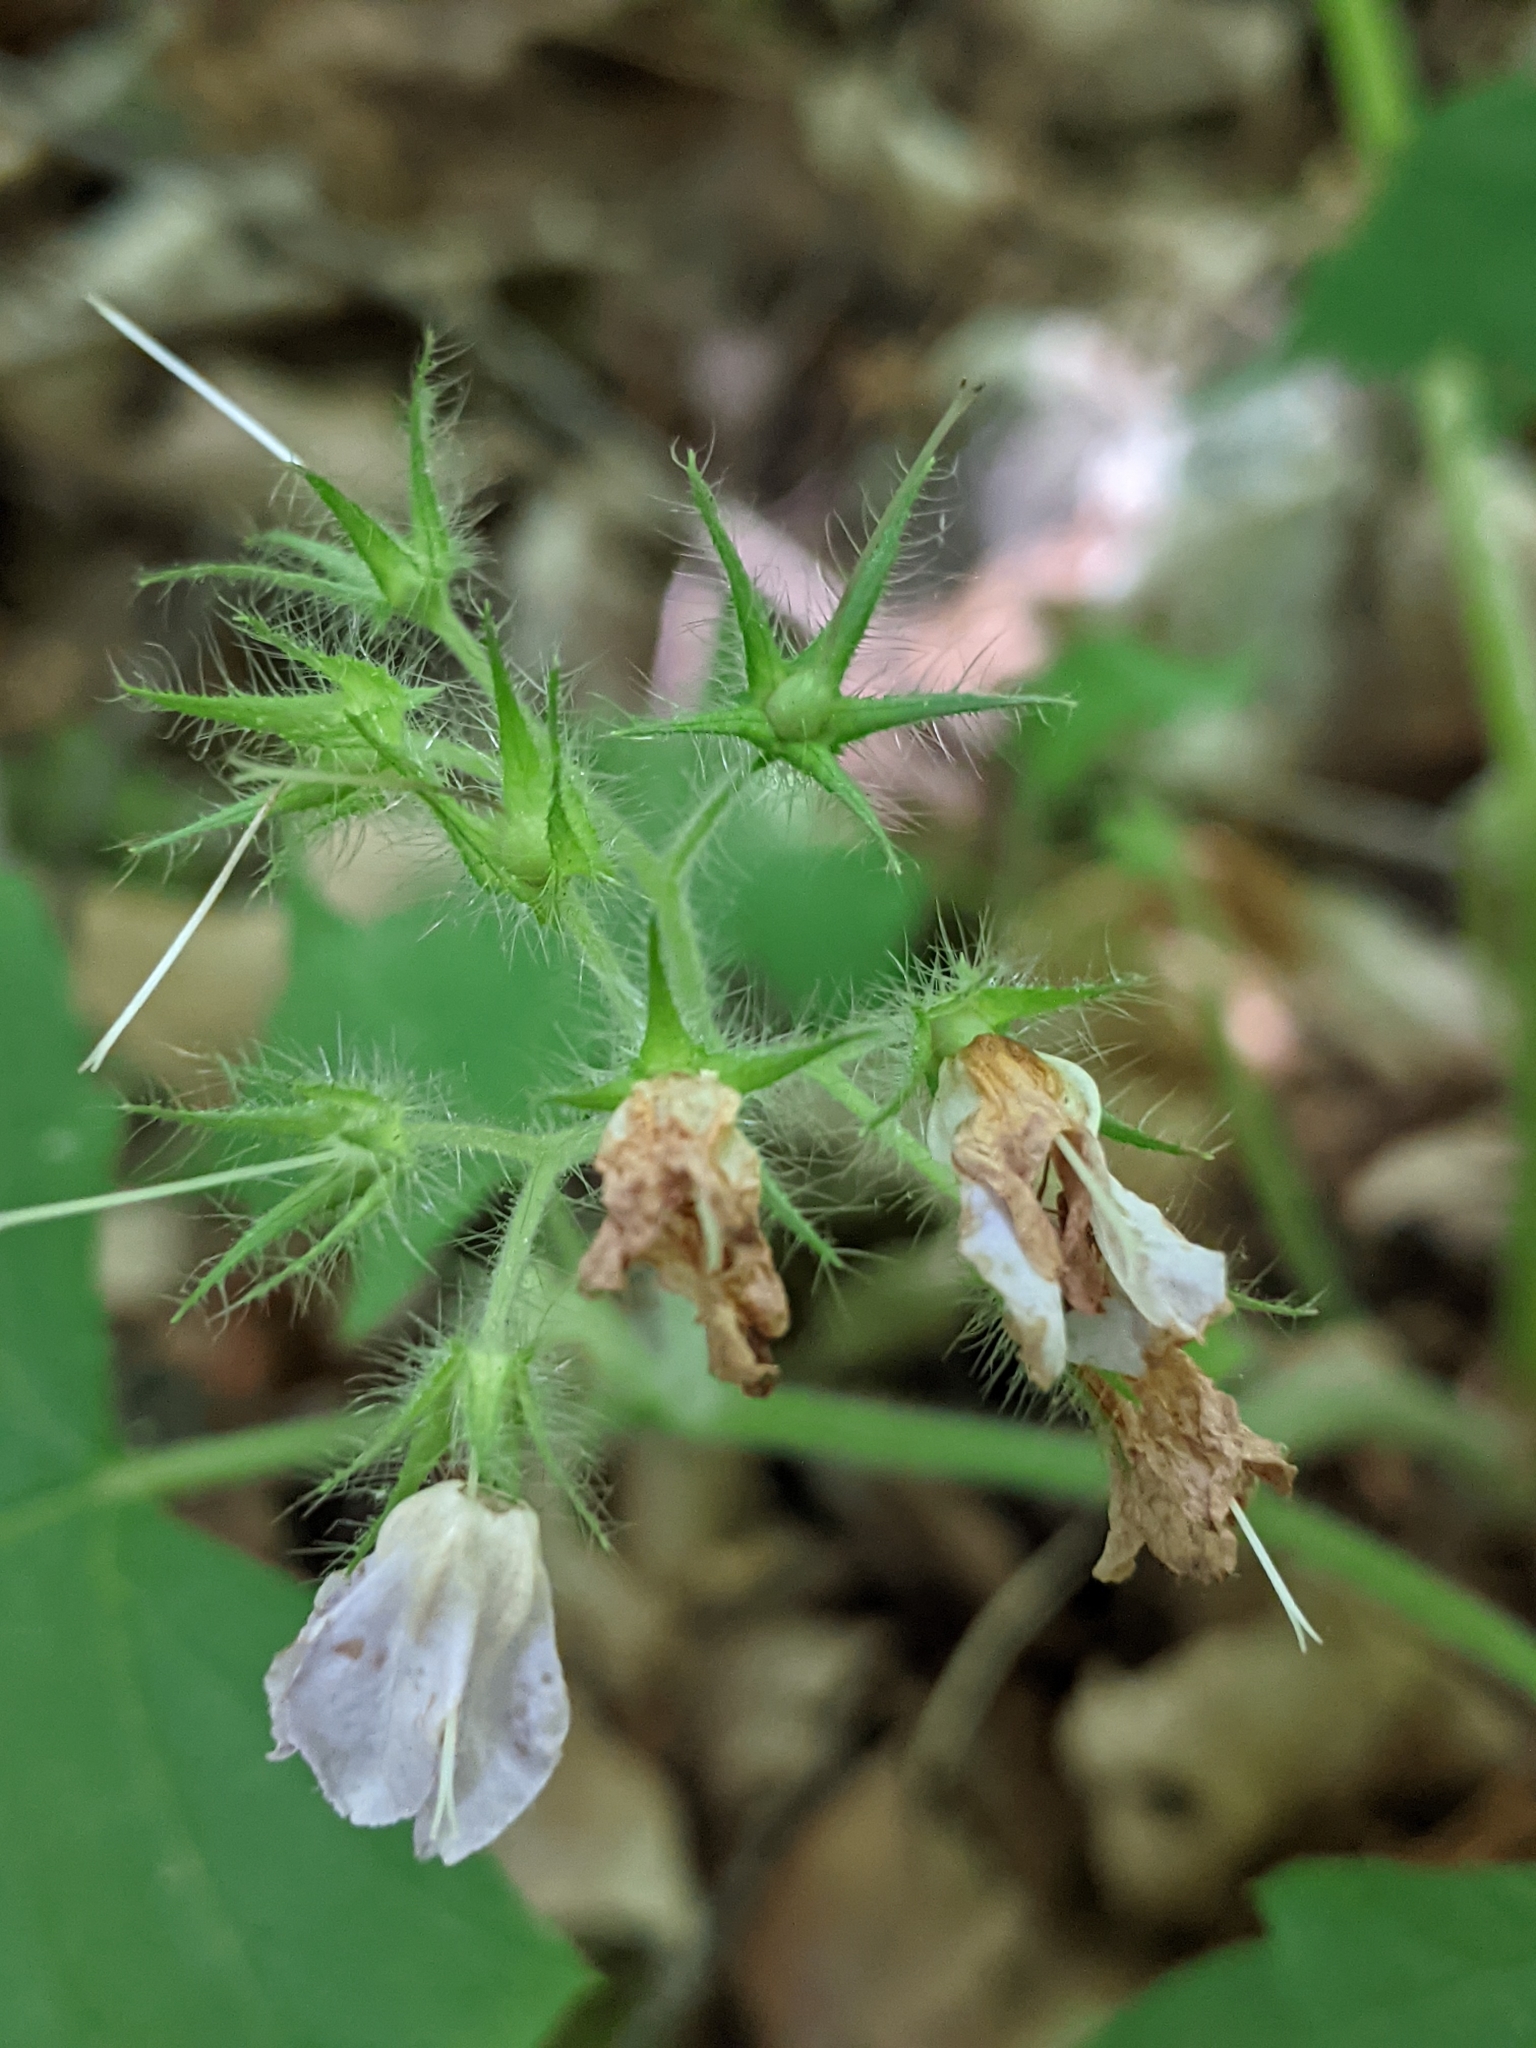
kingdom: Plantae
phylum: Tracheophyta
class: Magnoliopsida
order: Boraginales
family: Hydrophyllaceae
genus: Hydrophyllum
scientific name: Hydrophyllum appendiculatum
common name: Appendaged waterleaf
